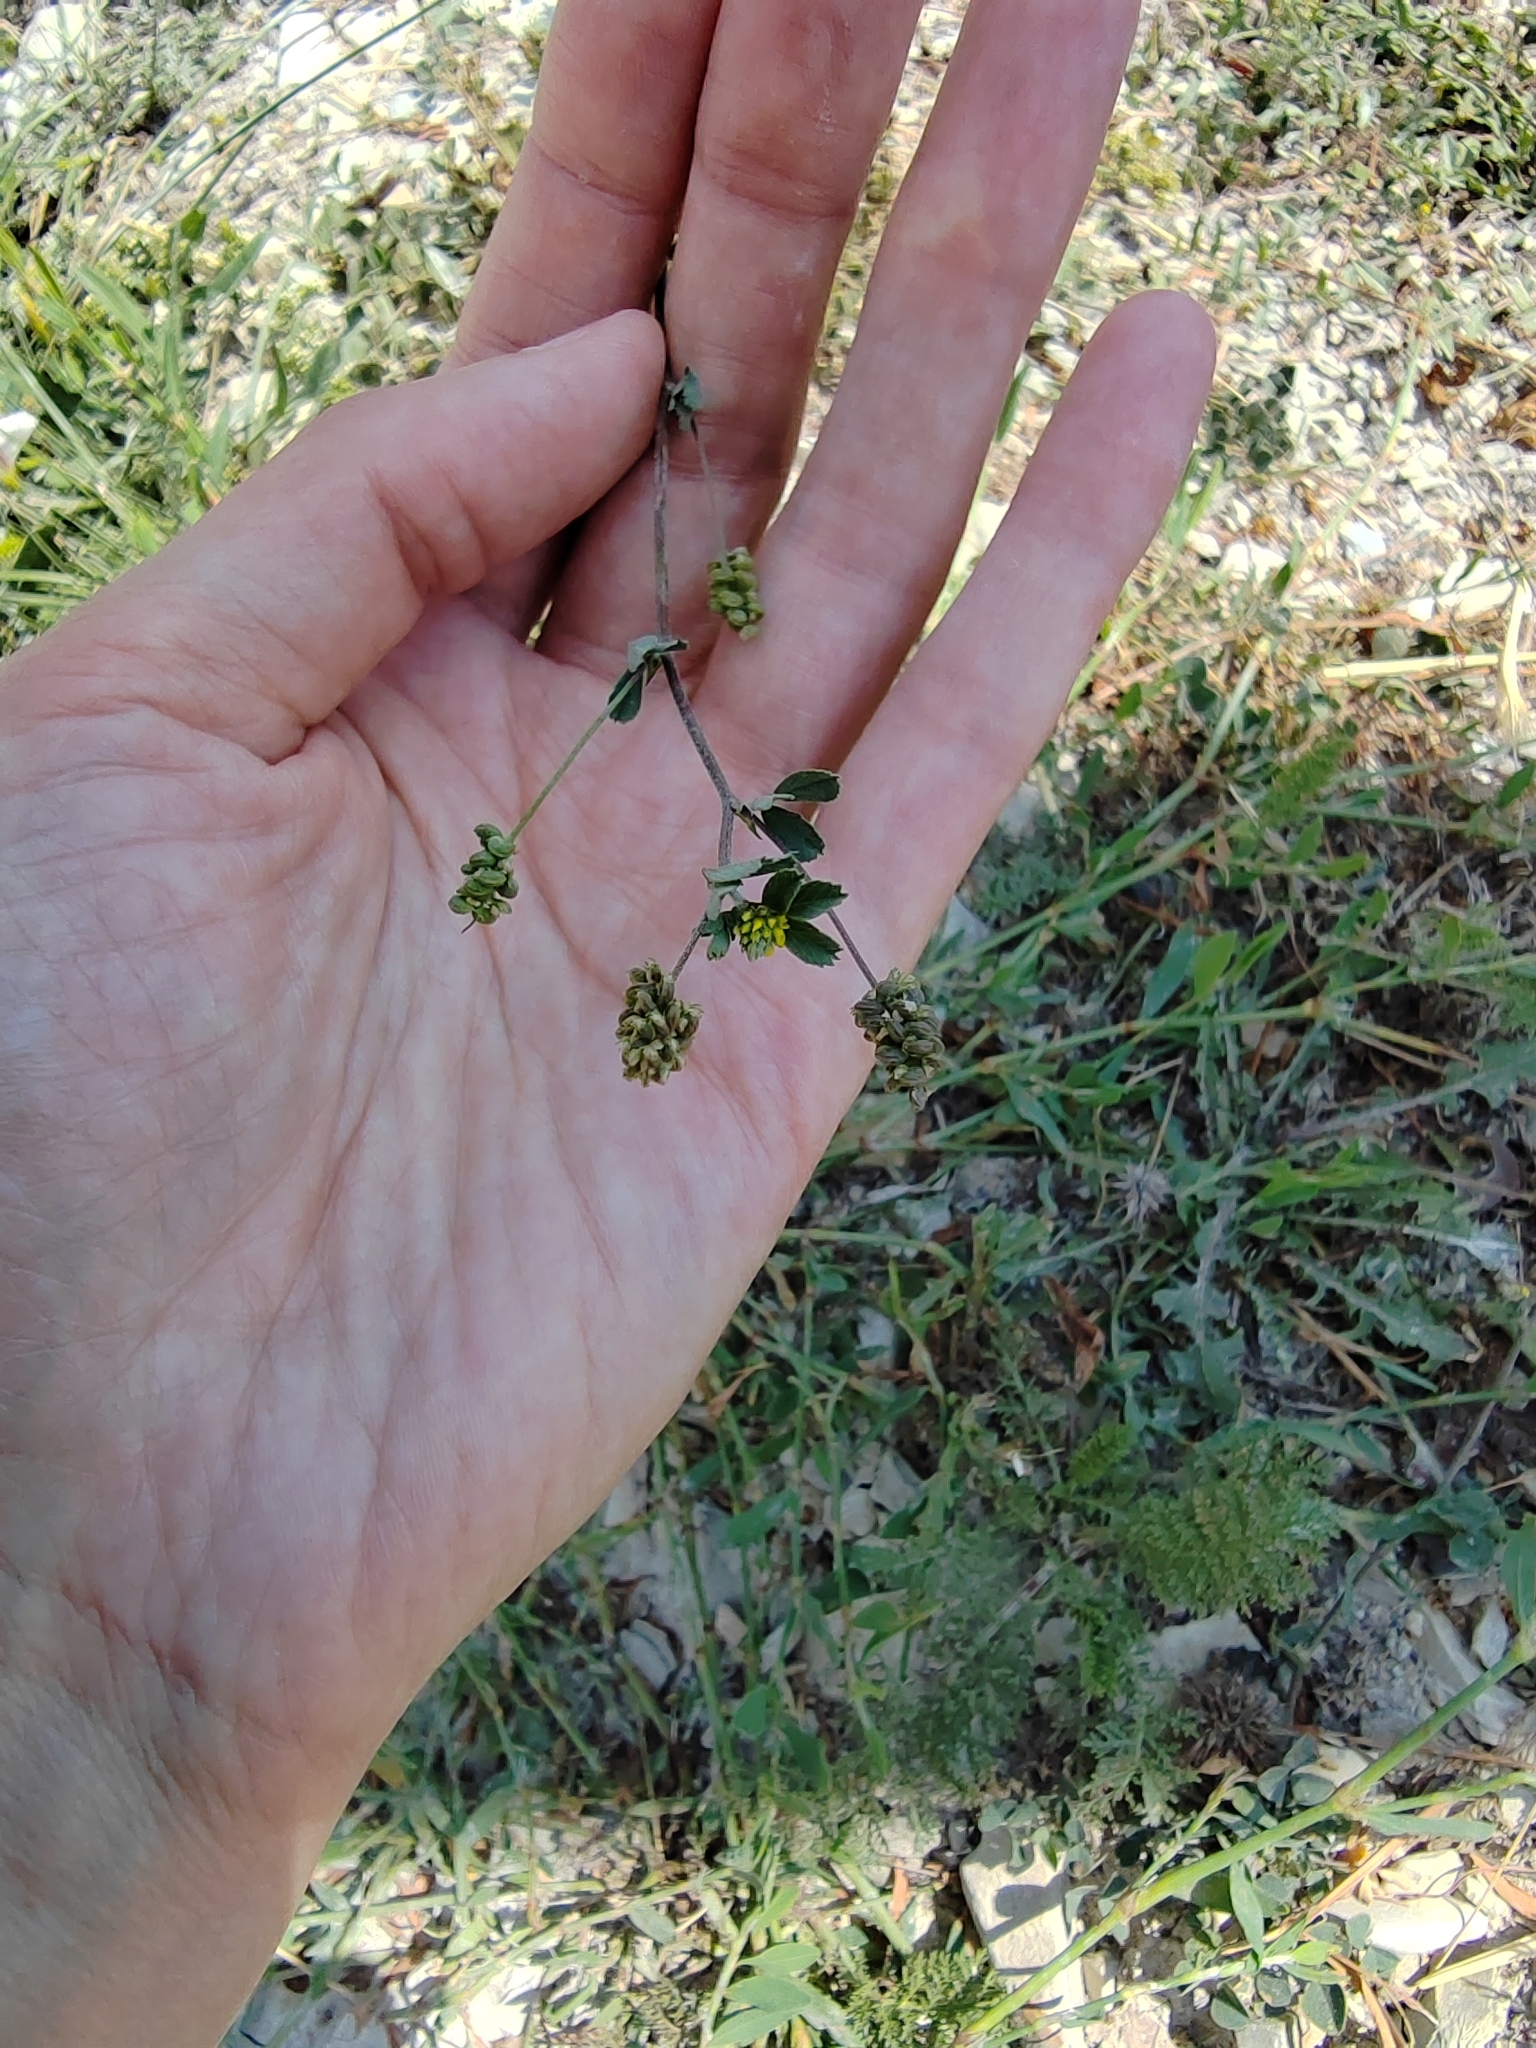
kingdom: Plantae
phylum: Tracheophyta
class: Magnoliopsida
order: Fabales
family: Fabaceae
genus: Medicago
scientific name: Medicago lupulina
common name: Black medick
